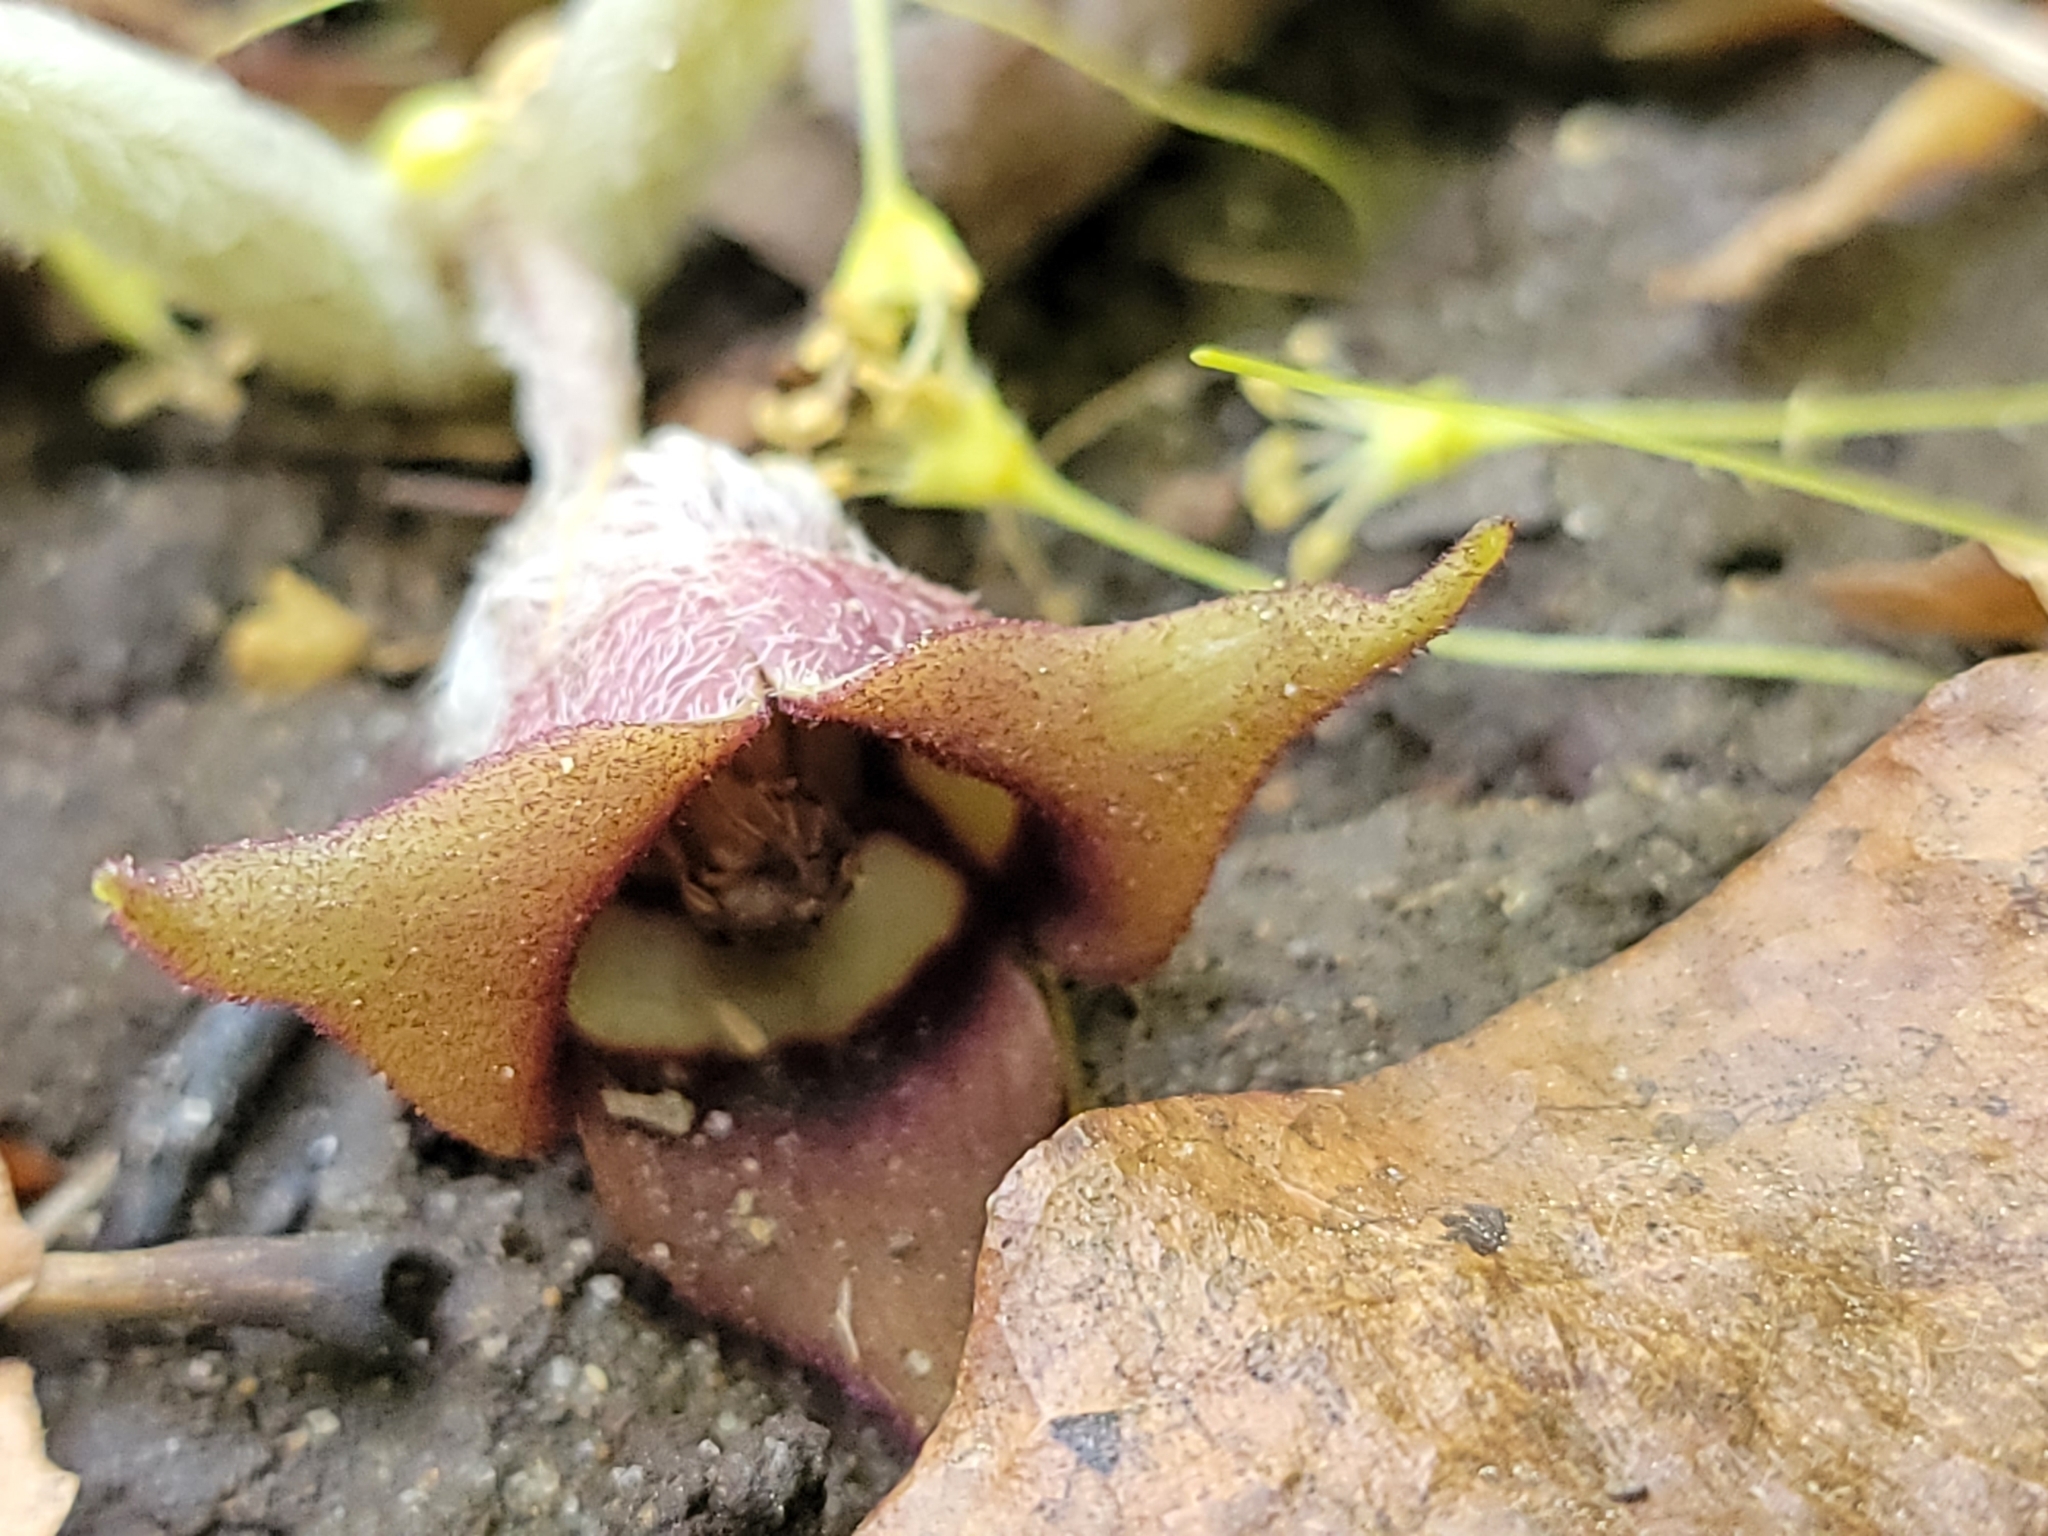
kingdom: Plantae
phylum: Tracheophyta
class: Magnoliopsida
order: Piperales
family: Aristolochiaceae
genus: Asarum
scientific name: Asarum canadense
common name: Wild ginger
